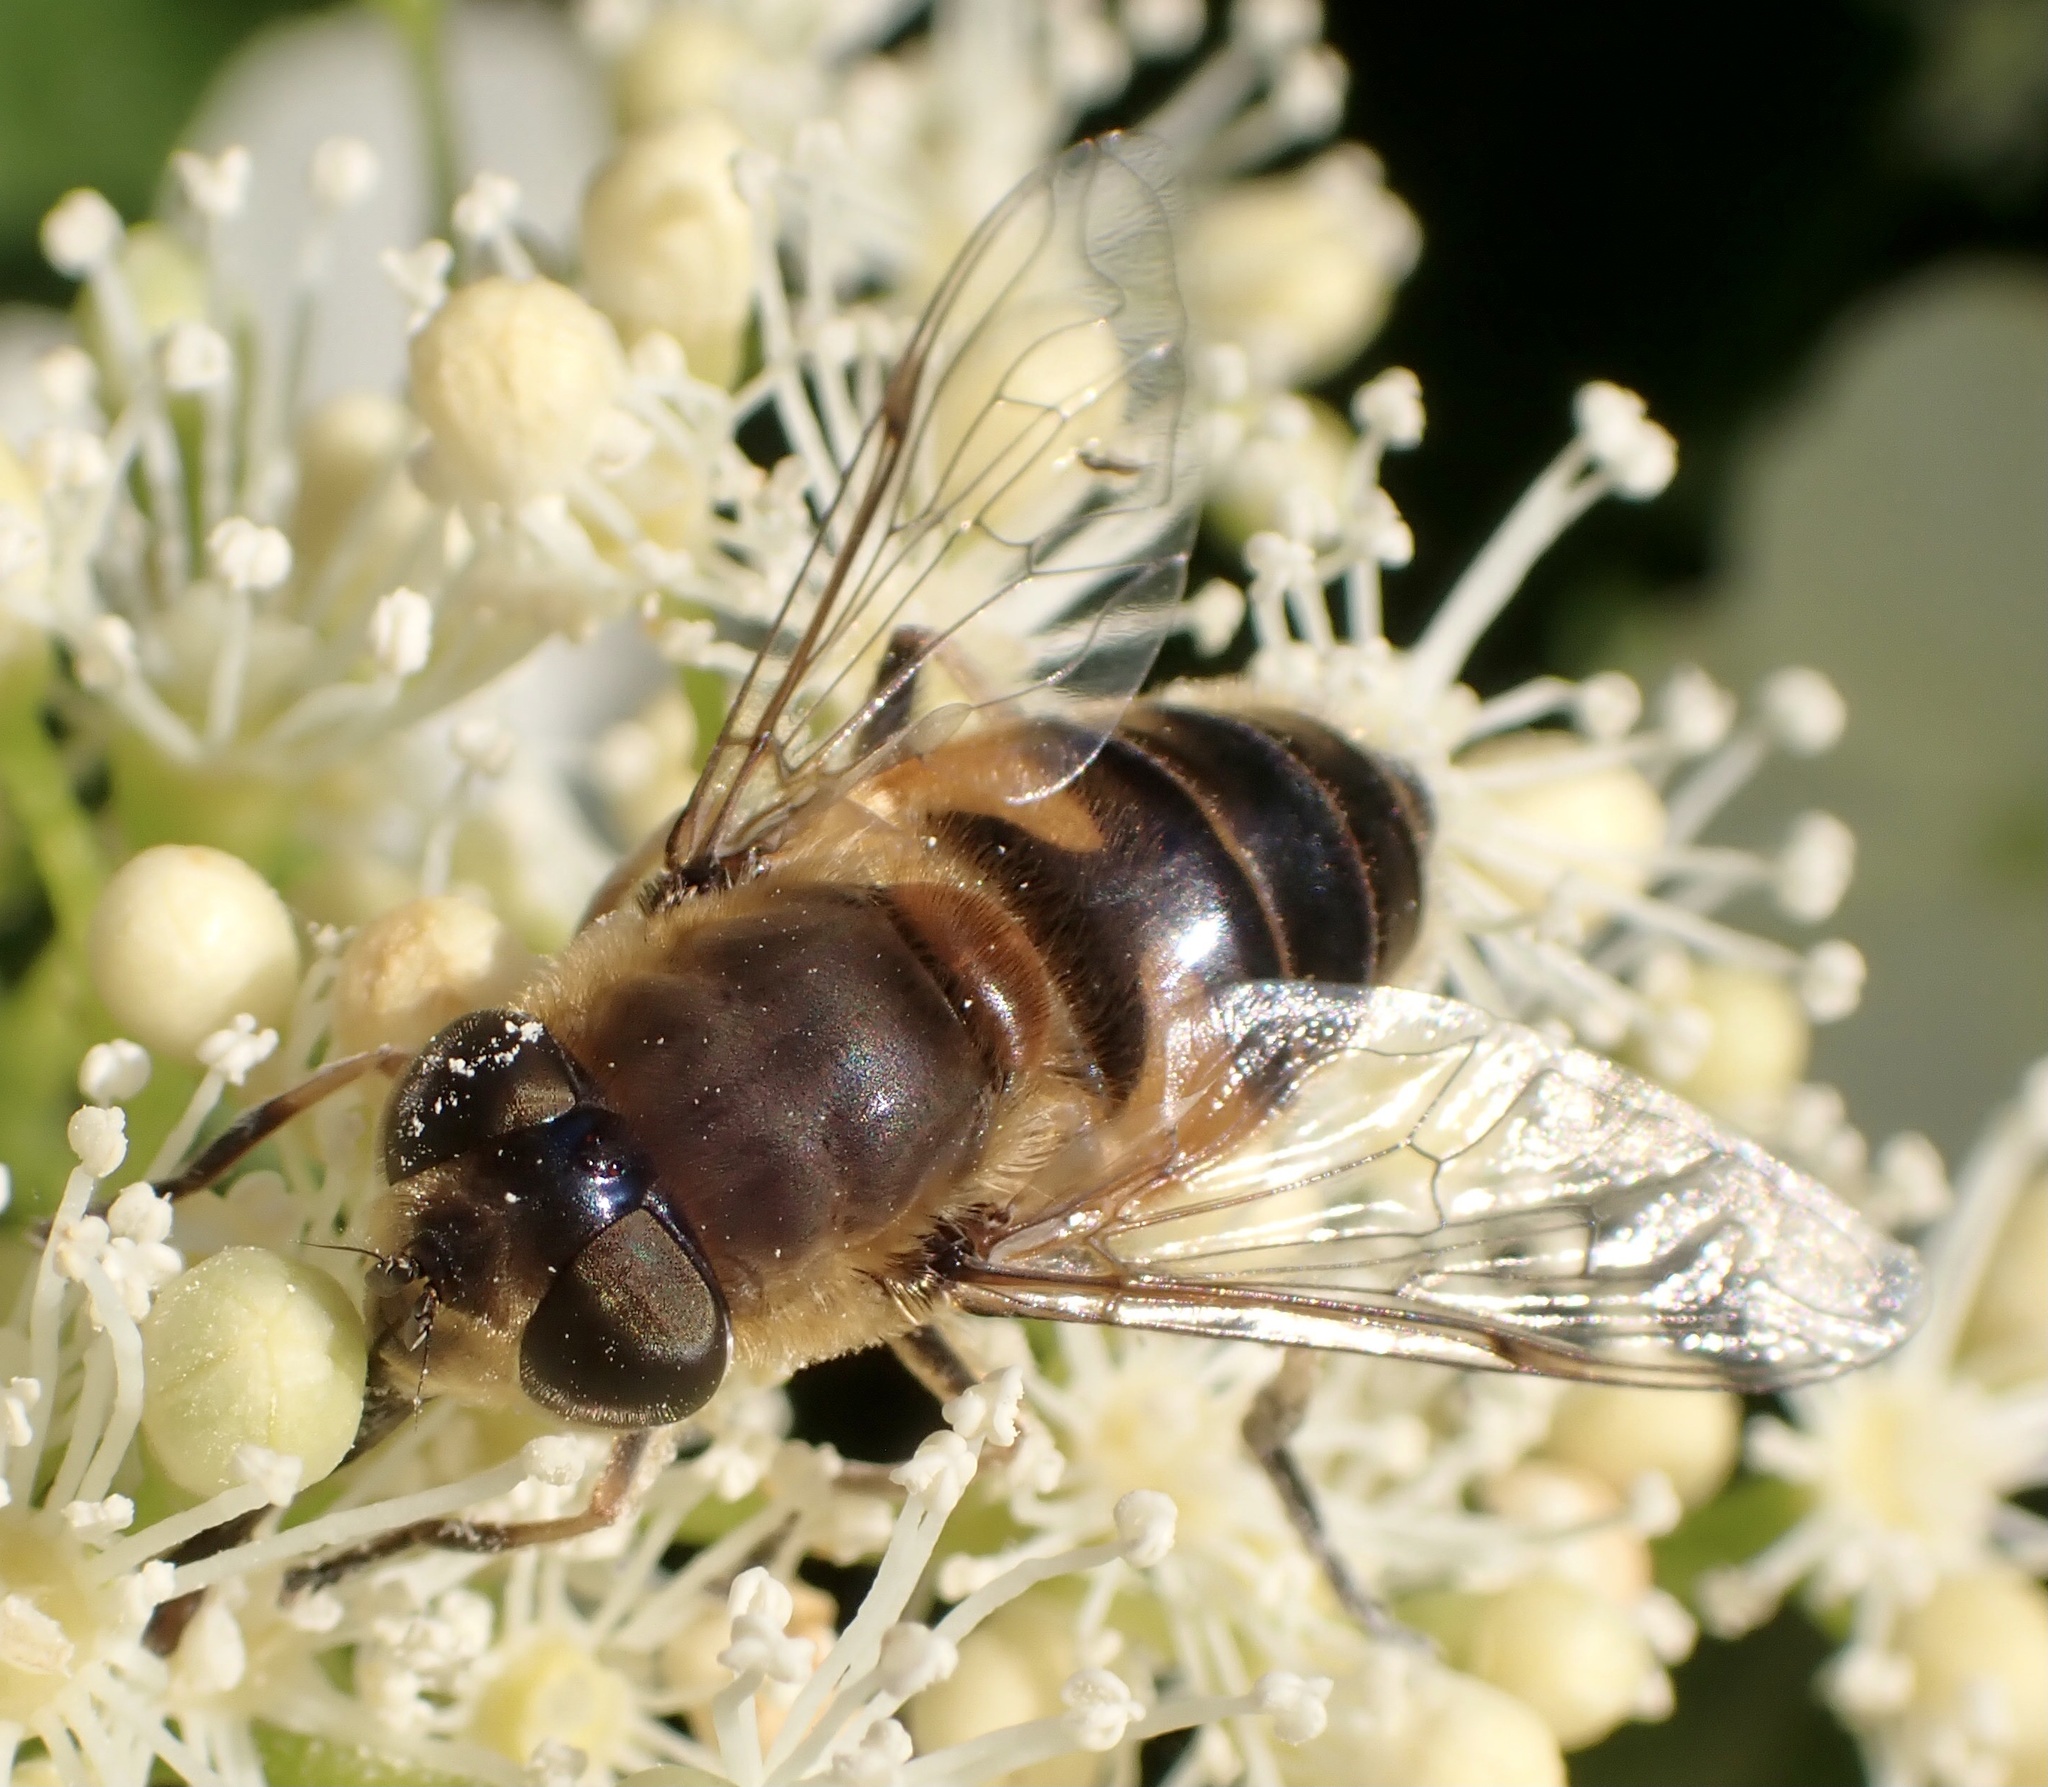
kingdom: Animalia
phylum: Arthropoda
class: Insecta
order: Diptera
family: Syrphidae
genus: Eristalis
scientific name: Eristalis pertinax
